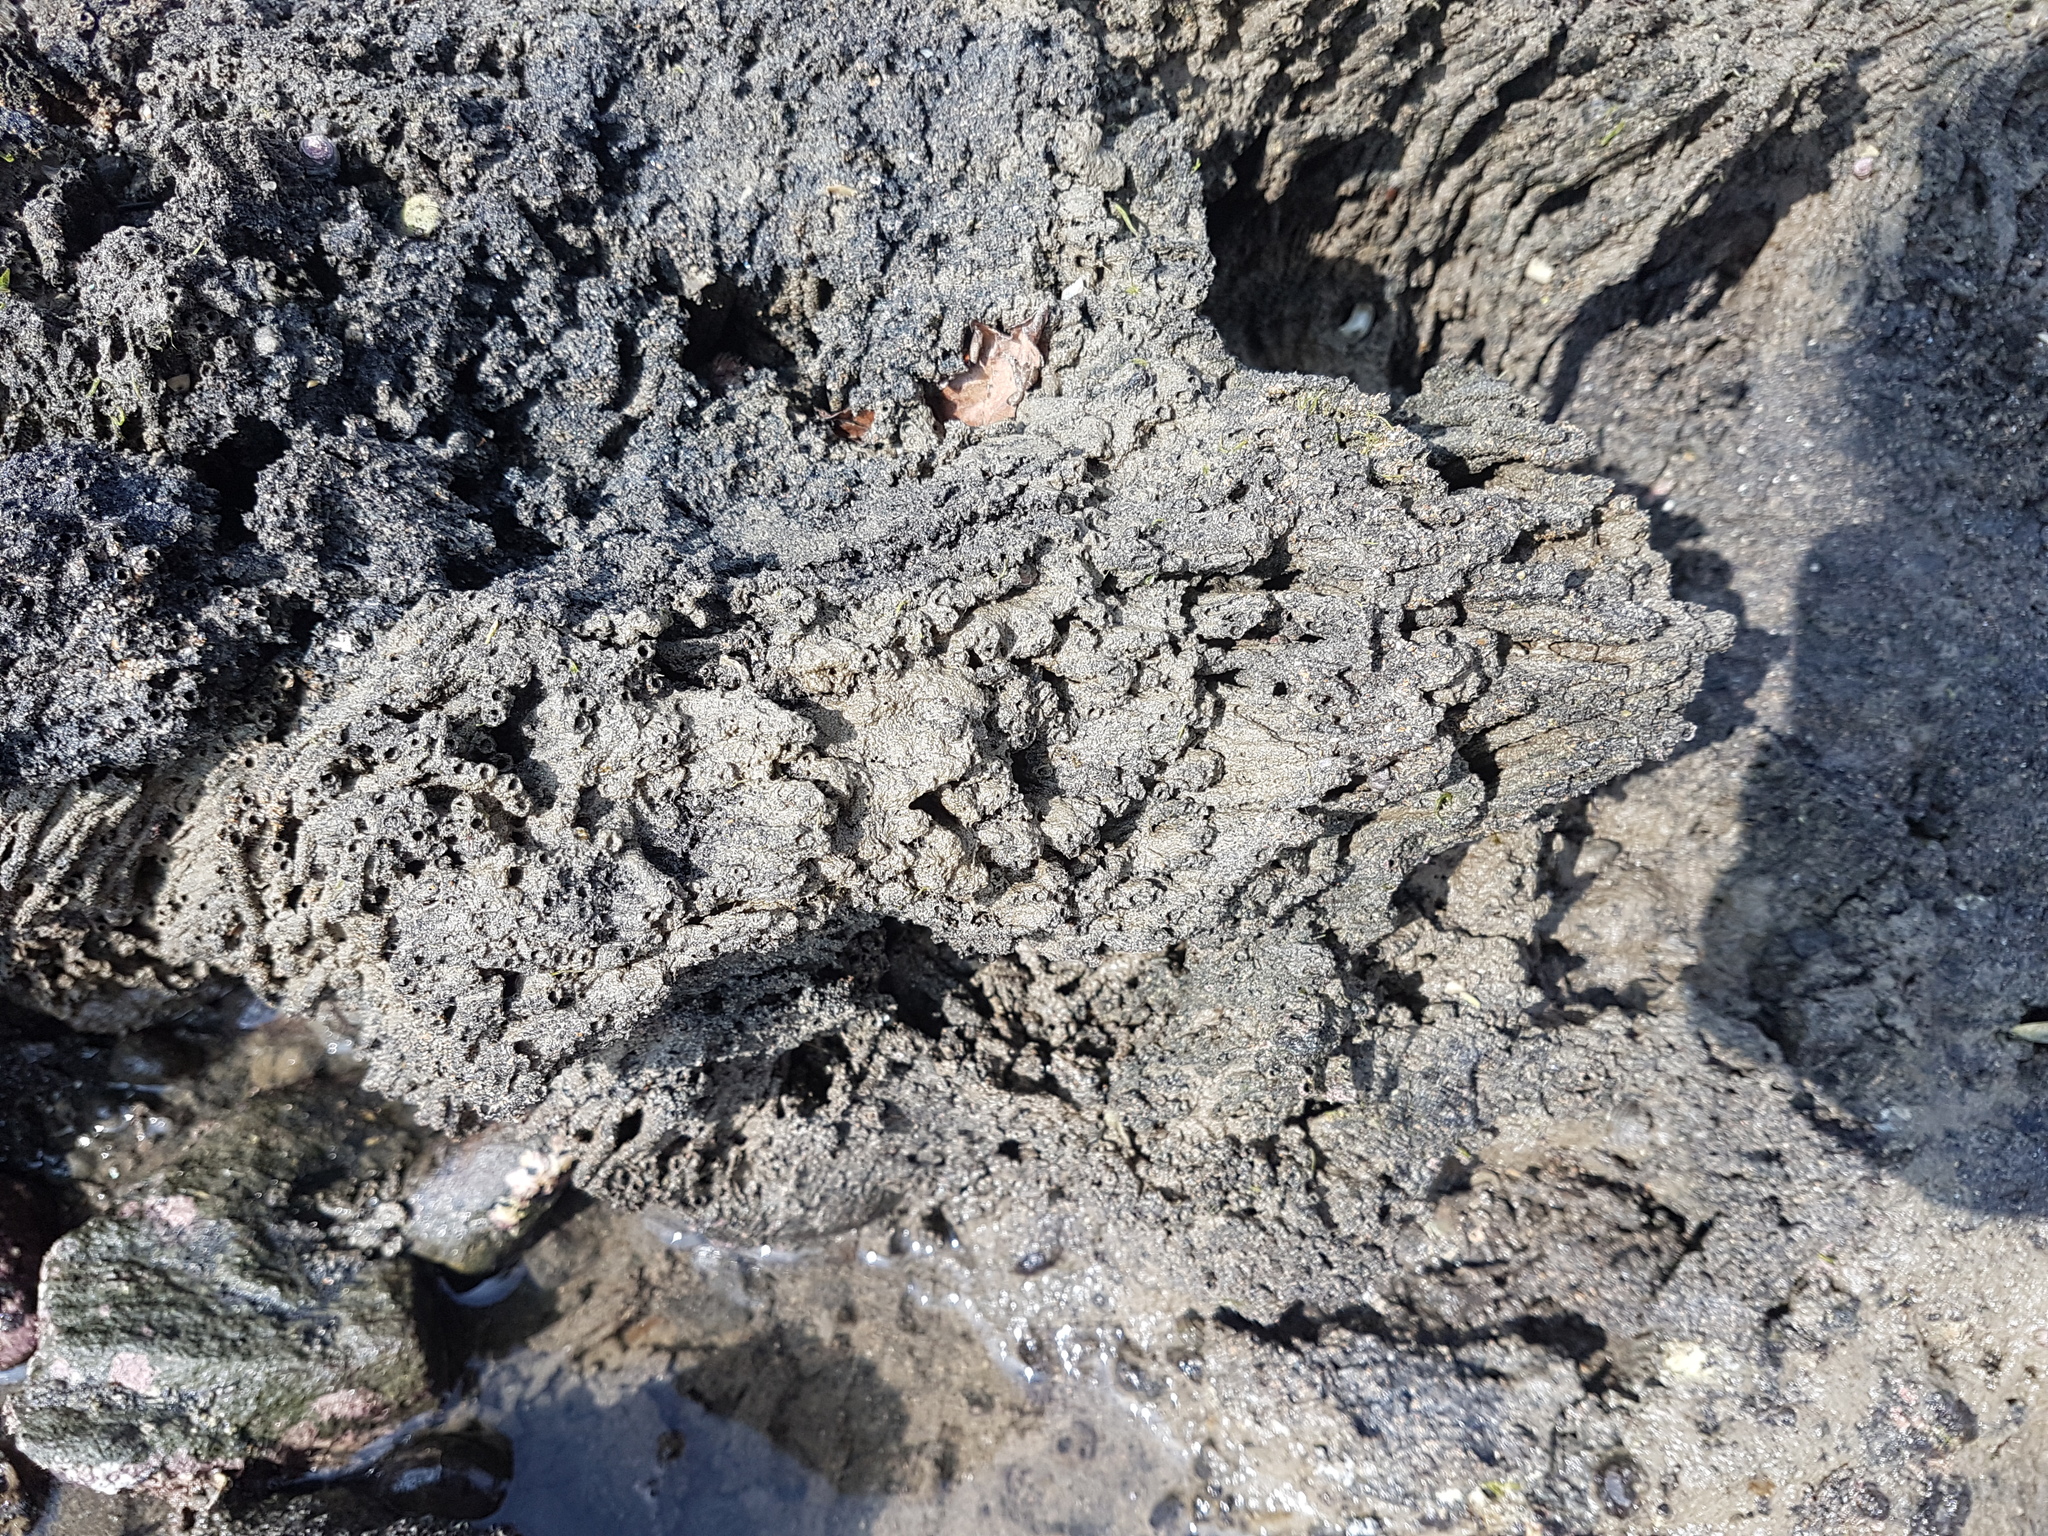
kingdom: Animalia
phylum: Annelida
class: Polychaeta
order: Sabellida
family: Sabellariidae
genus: Neosabellaria
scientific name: Neosabellaria kaiparaensis
